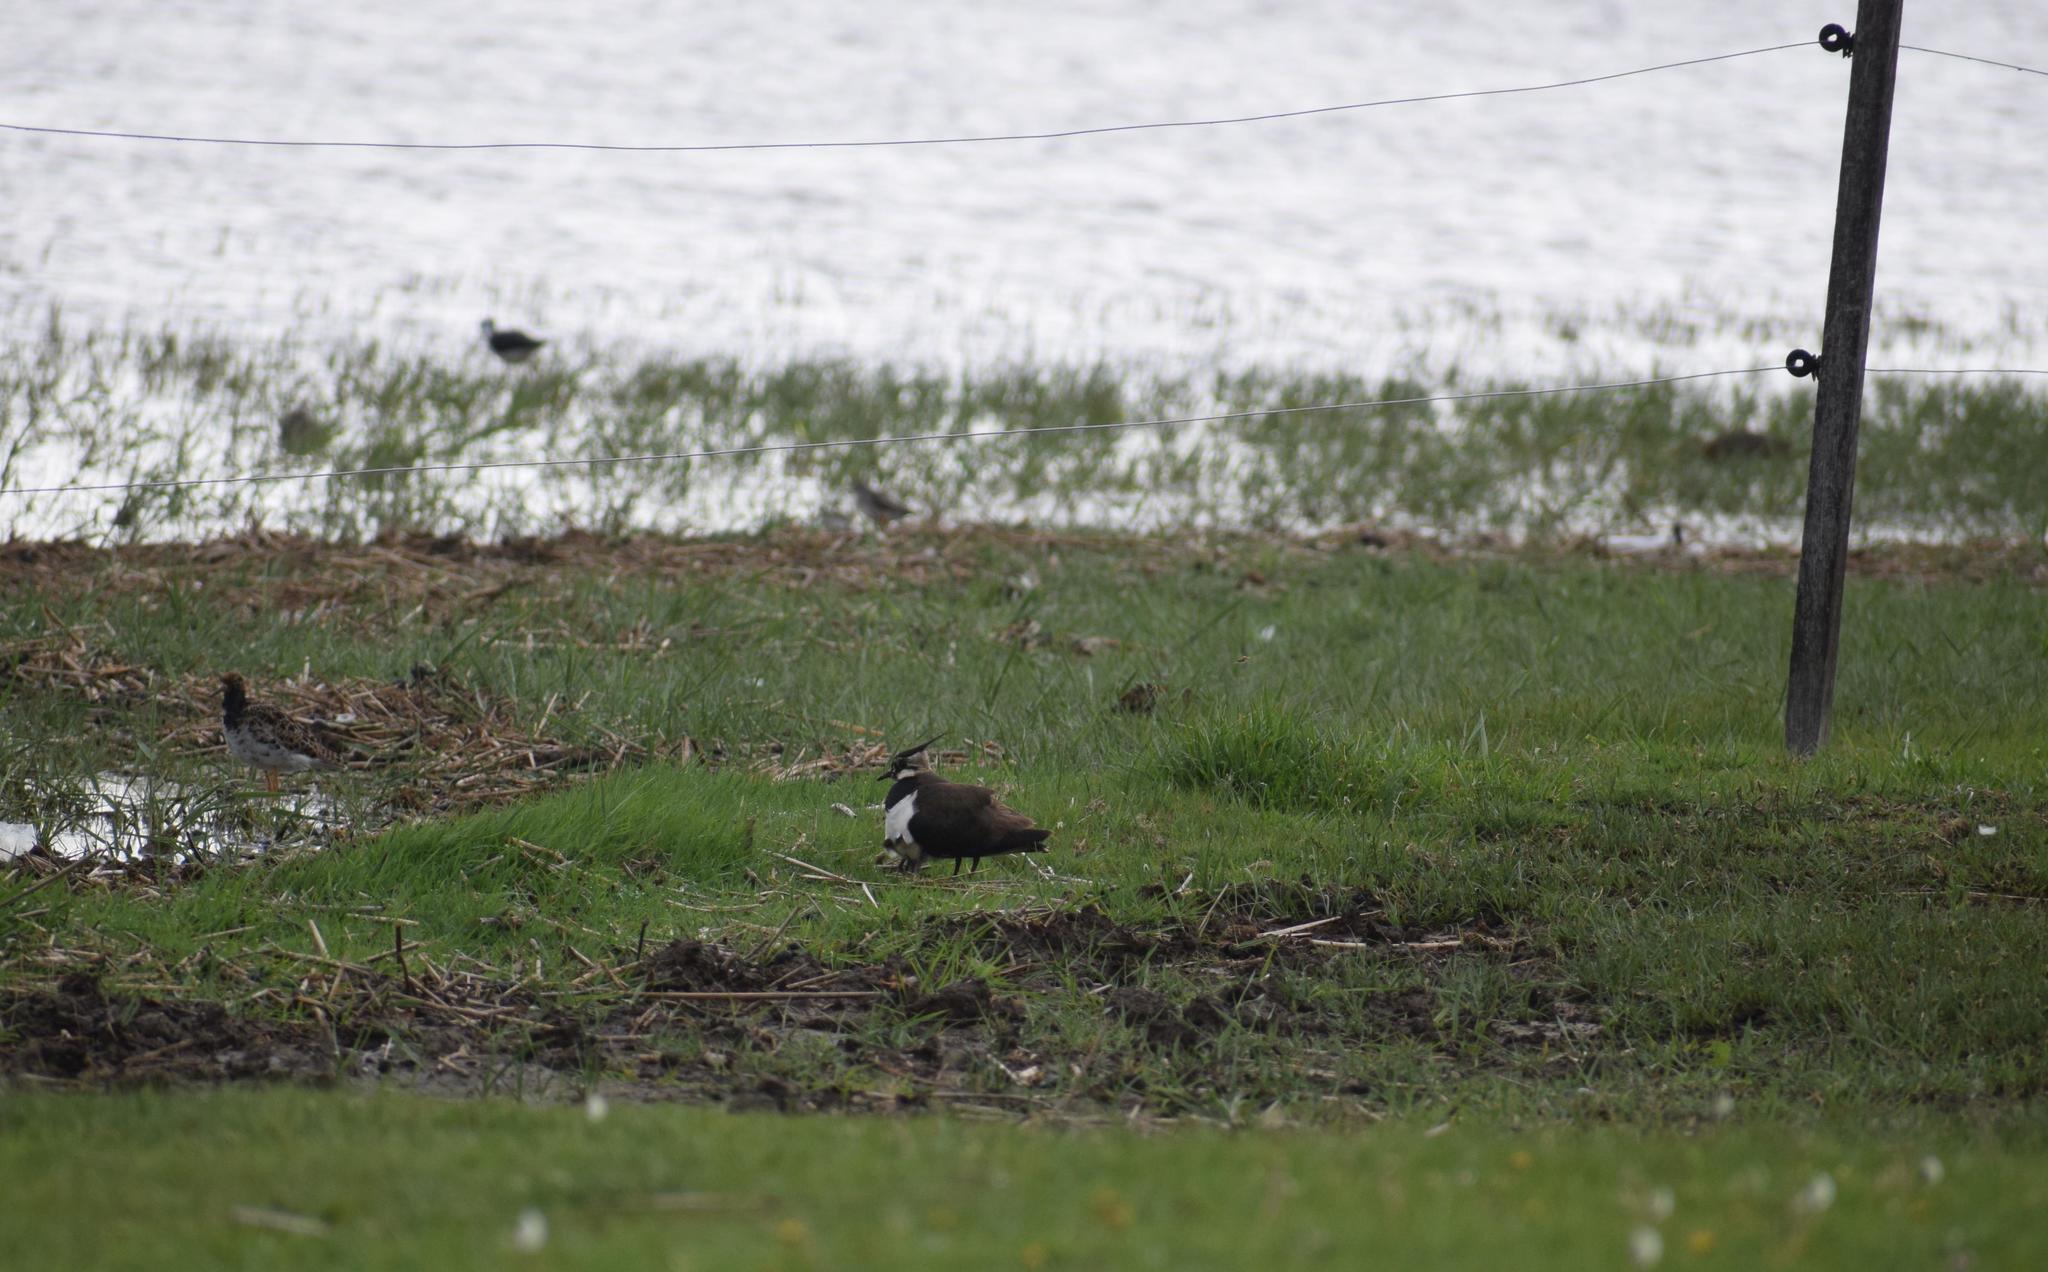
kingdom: Animalia
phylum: Chordata
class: Aves
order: Charadriiformes
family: Charadriidae
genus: Vanellus
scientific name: Vanellus vanellus
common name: Northern lapwing
